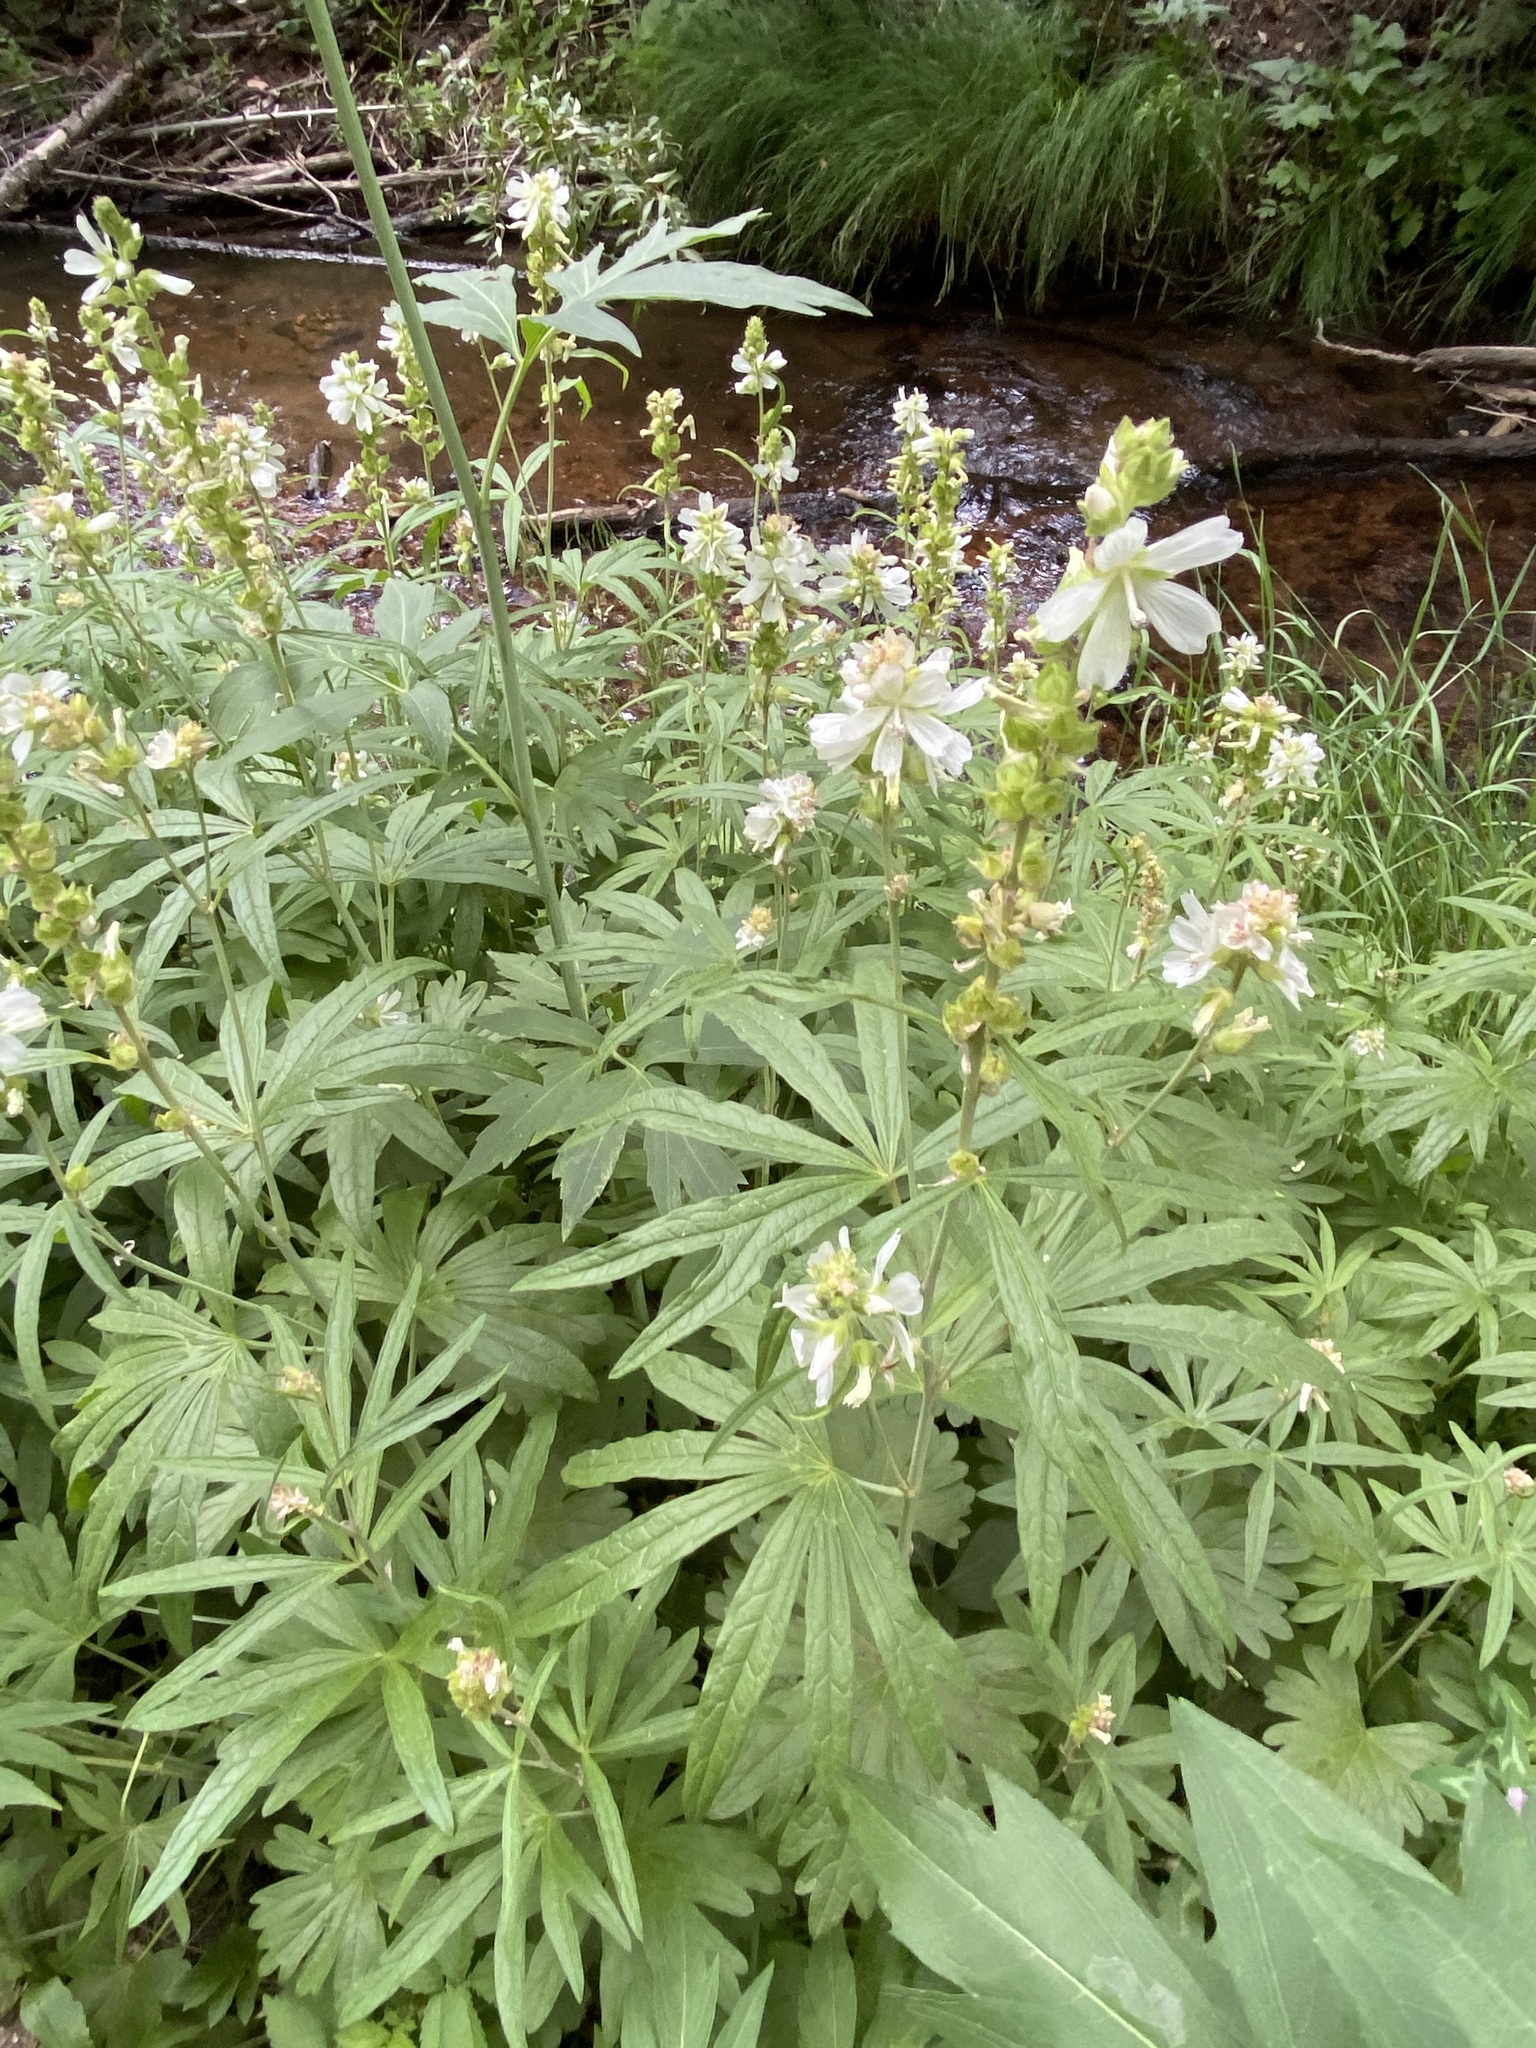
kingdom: Plantae
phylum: Tracheophyta
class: Magnoliopsida
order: Malvales
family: Malvaceae
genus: Sidalcea
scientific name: Sidalcea candida
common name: Prairie-mallow
